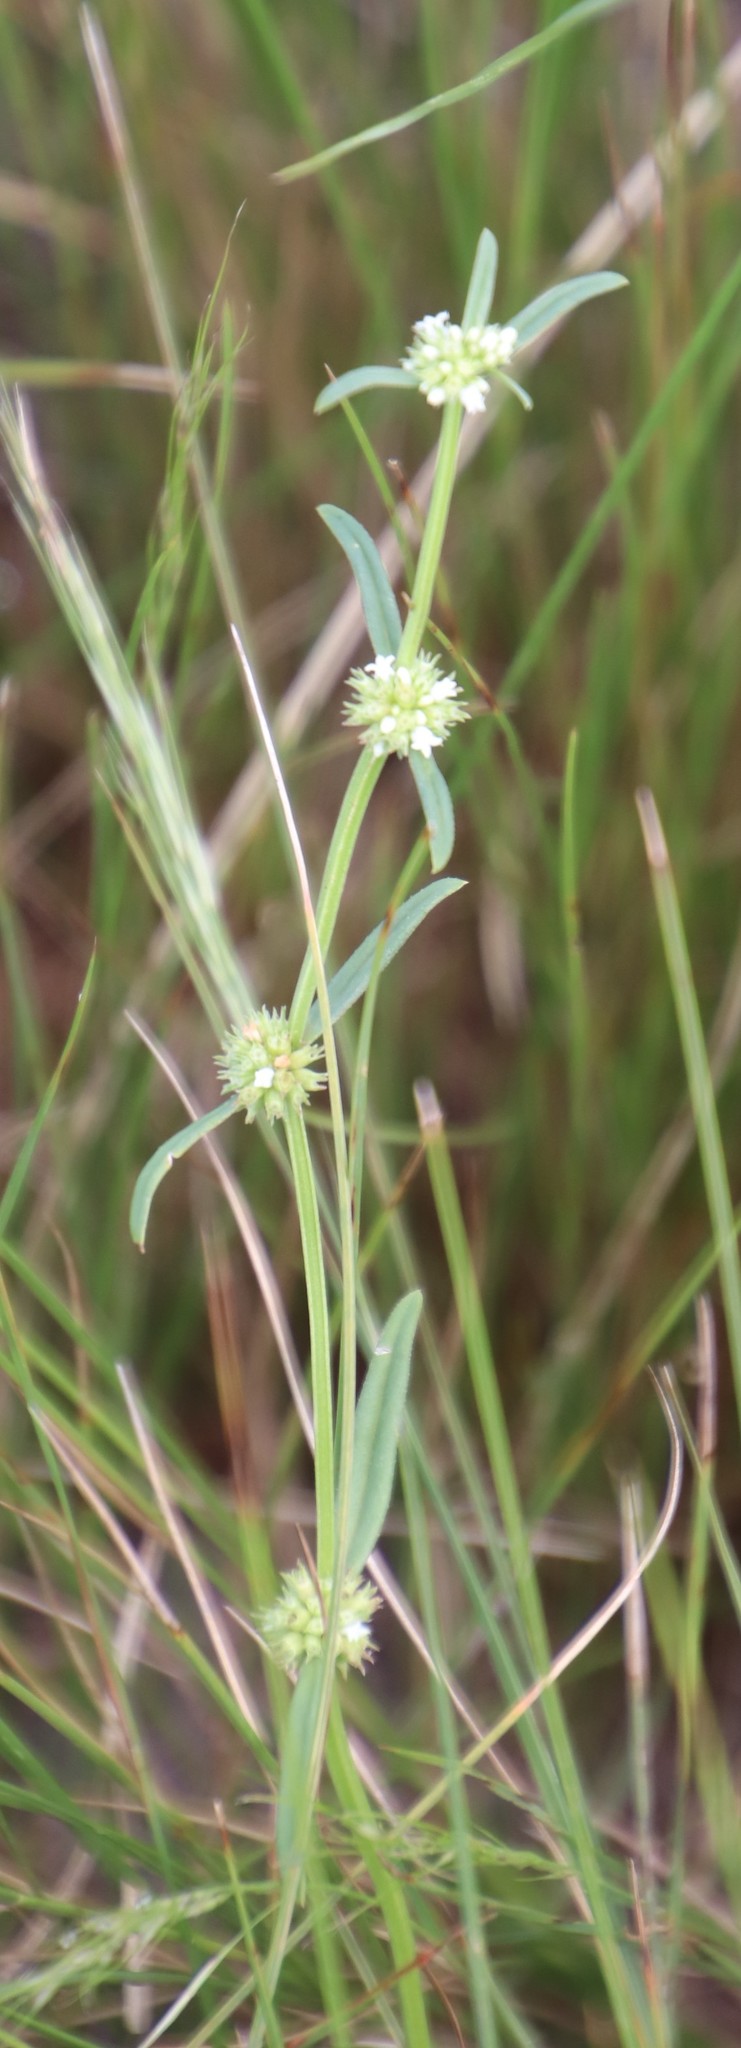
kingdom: Plantae
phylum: Tracheophyta
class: Magnoliopsida
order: Gentianales
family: Rubiaceae
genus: Spermacoce
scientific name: Spermacoce natalensis
